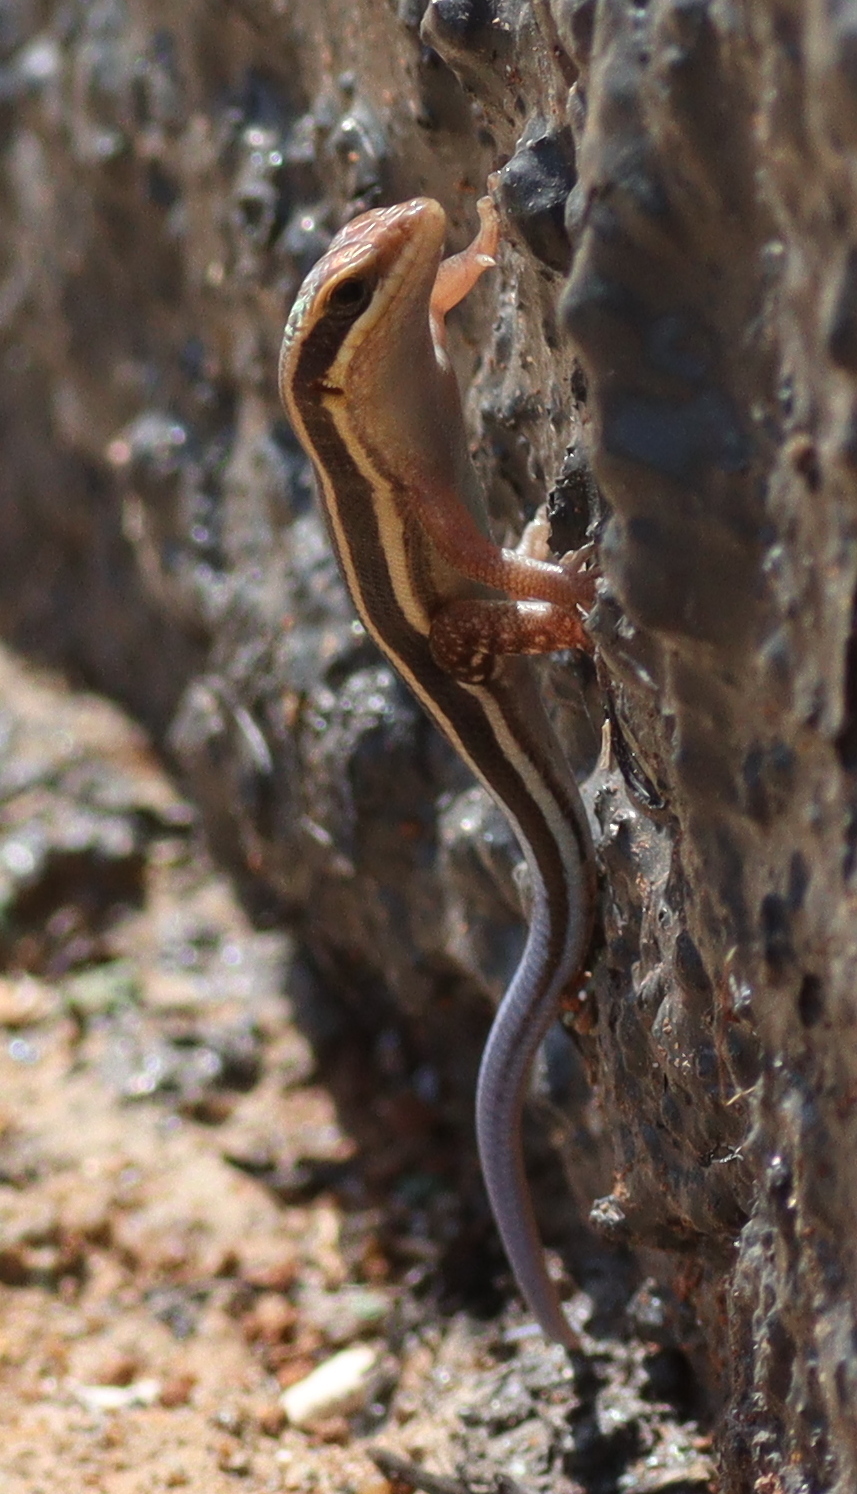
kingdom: Animalia
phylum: Chordata
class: Squamata
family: Scincidae
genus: Trachylepis
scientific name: Trachylepis quinquetaeniata
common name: African five-lined skink
